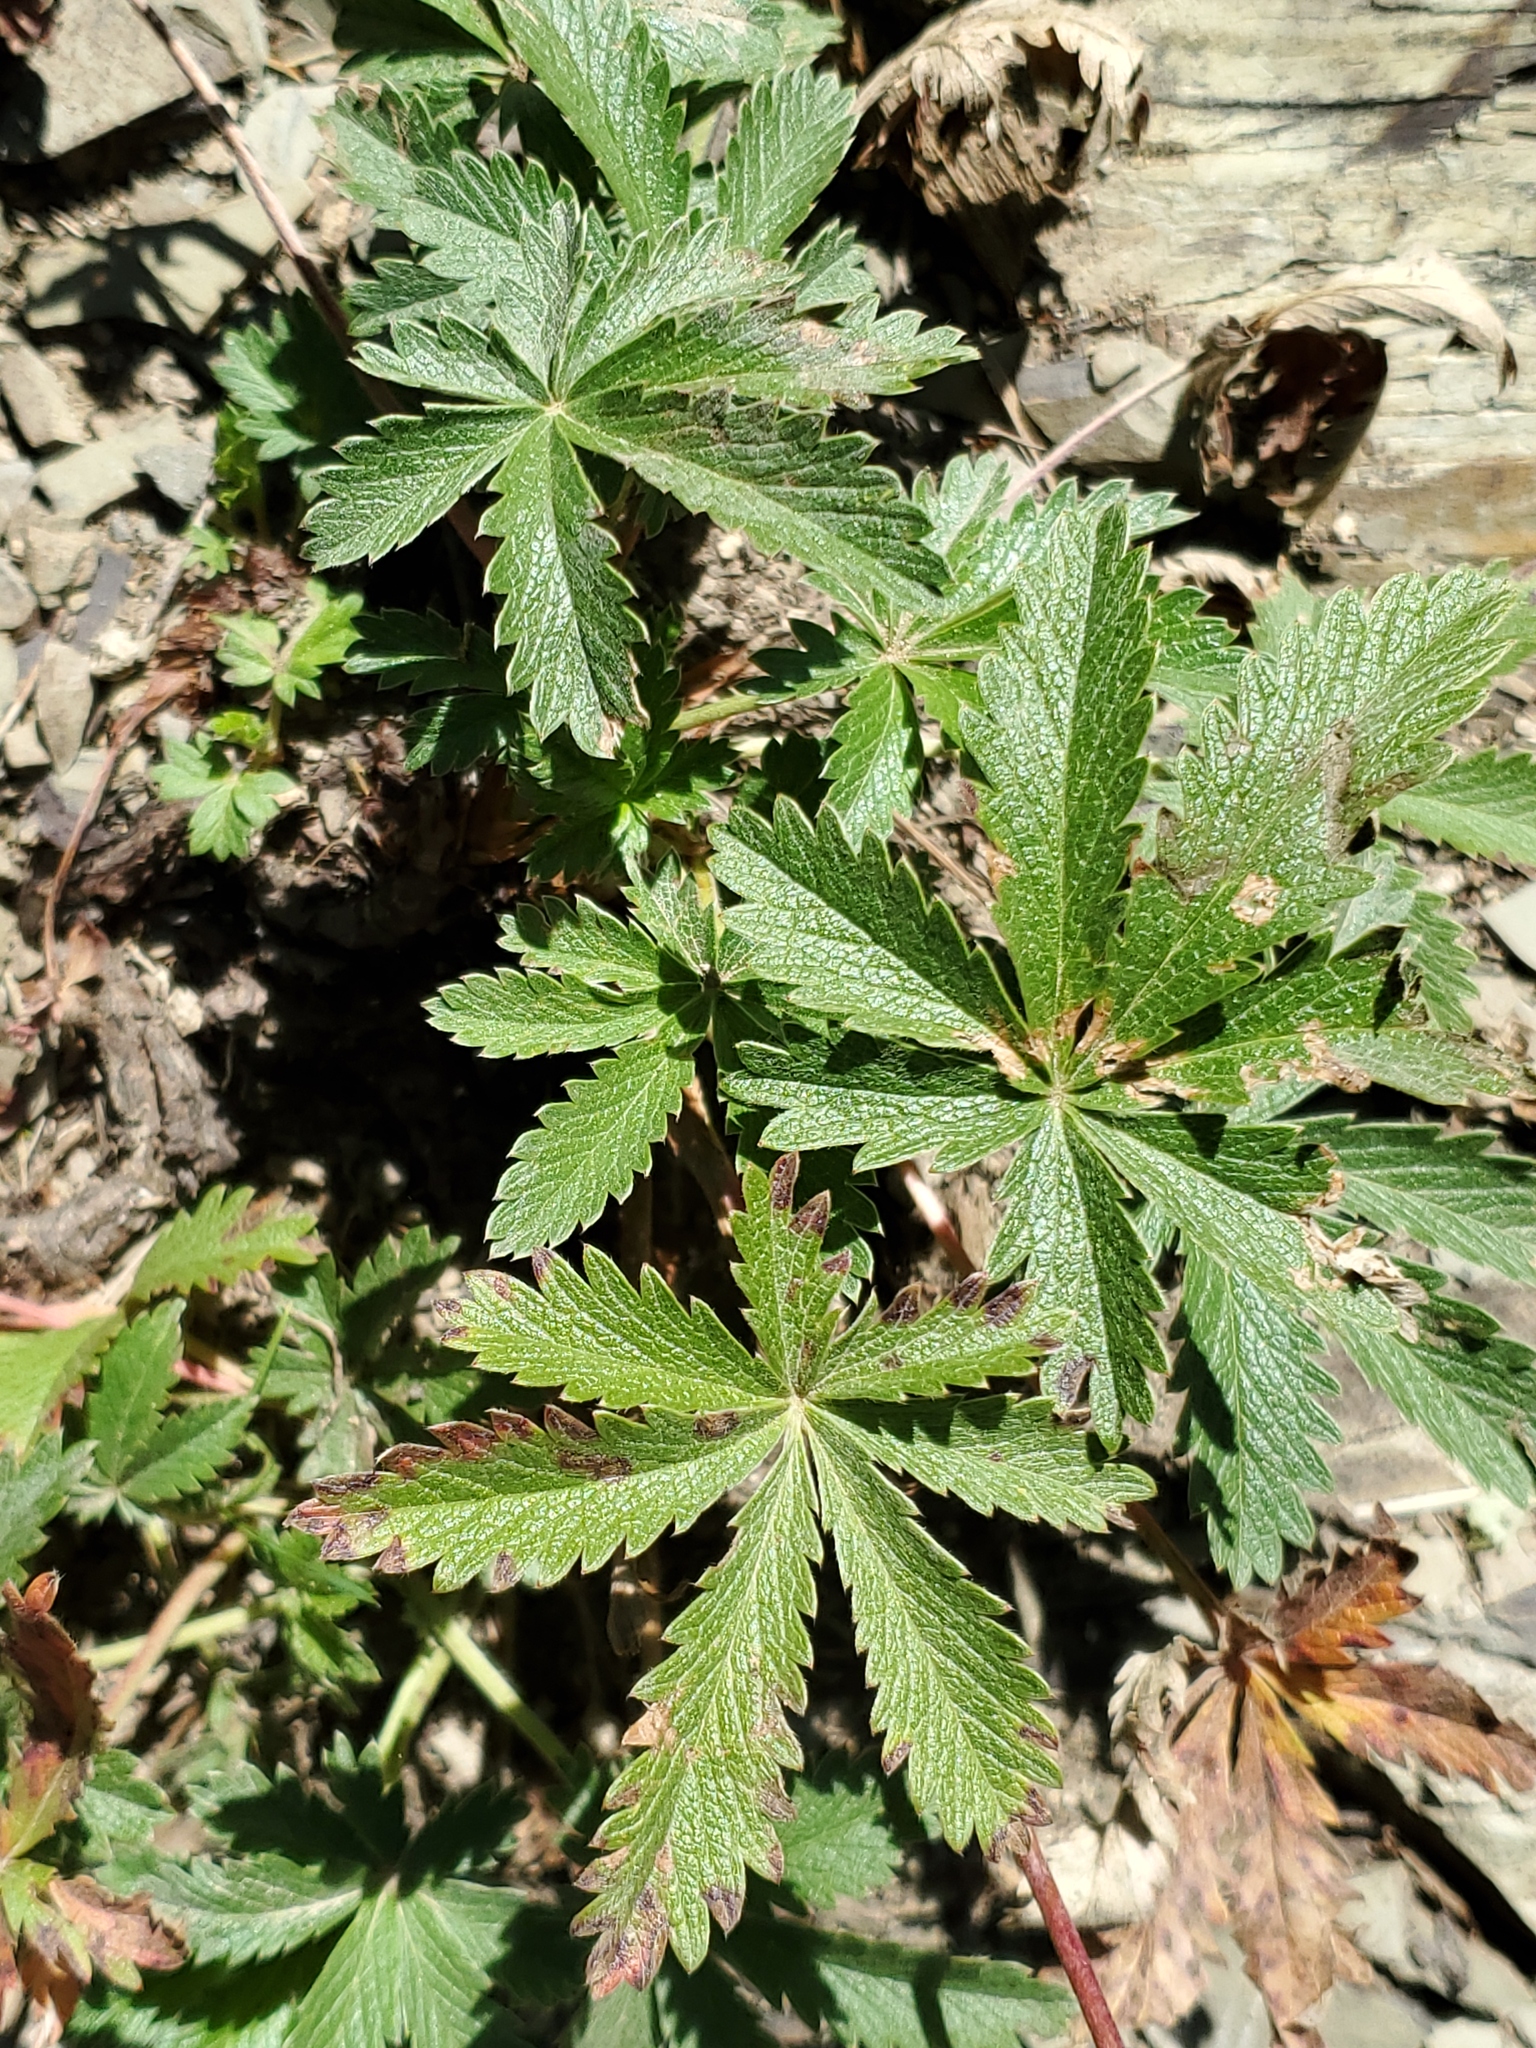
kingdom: Plantae
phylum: Tracheophyta
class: Magnoliopsida
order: Rosales
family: Rosaceae
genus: Potentilla
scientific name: Potentilla recta
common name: Sulphur cinquefoil
